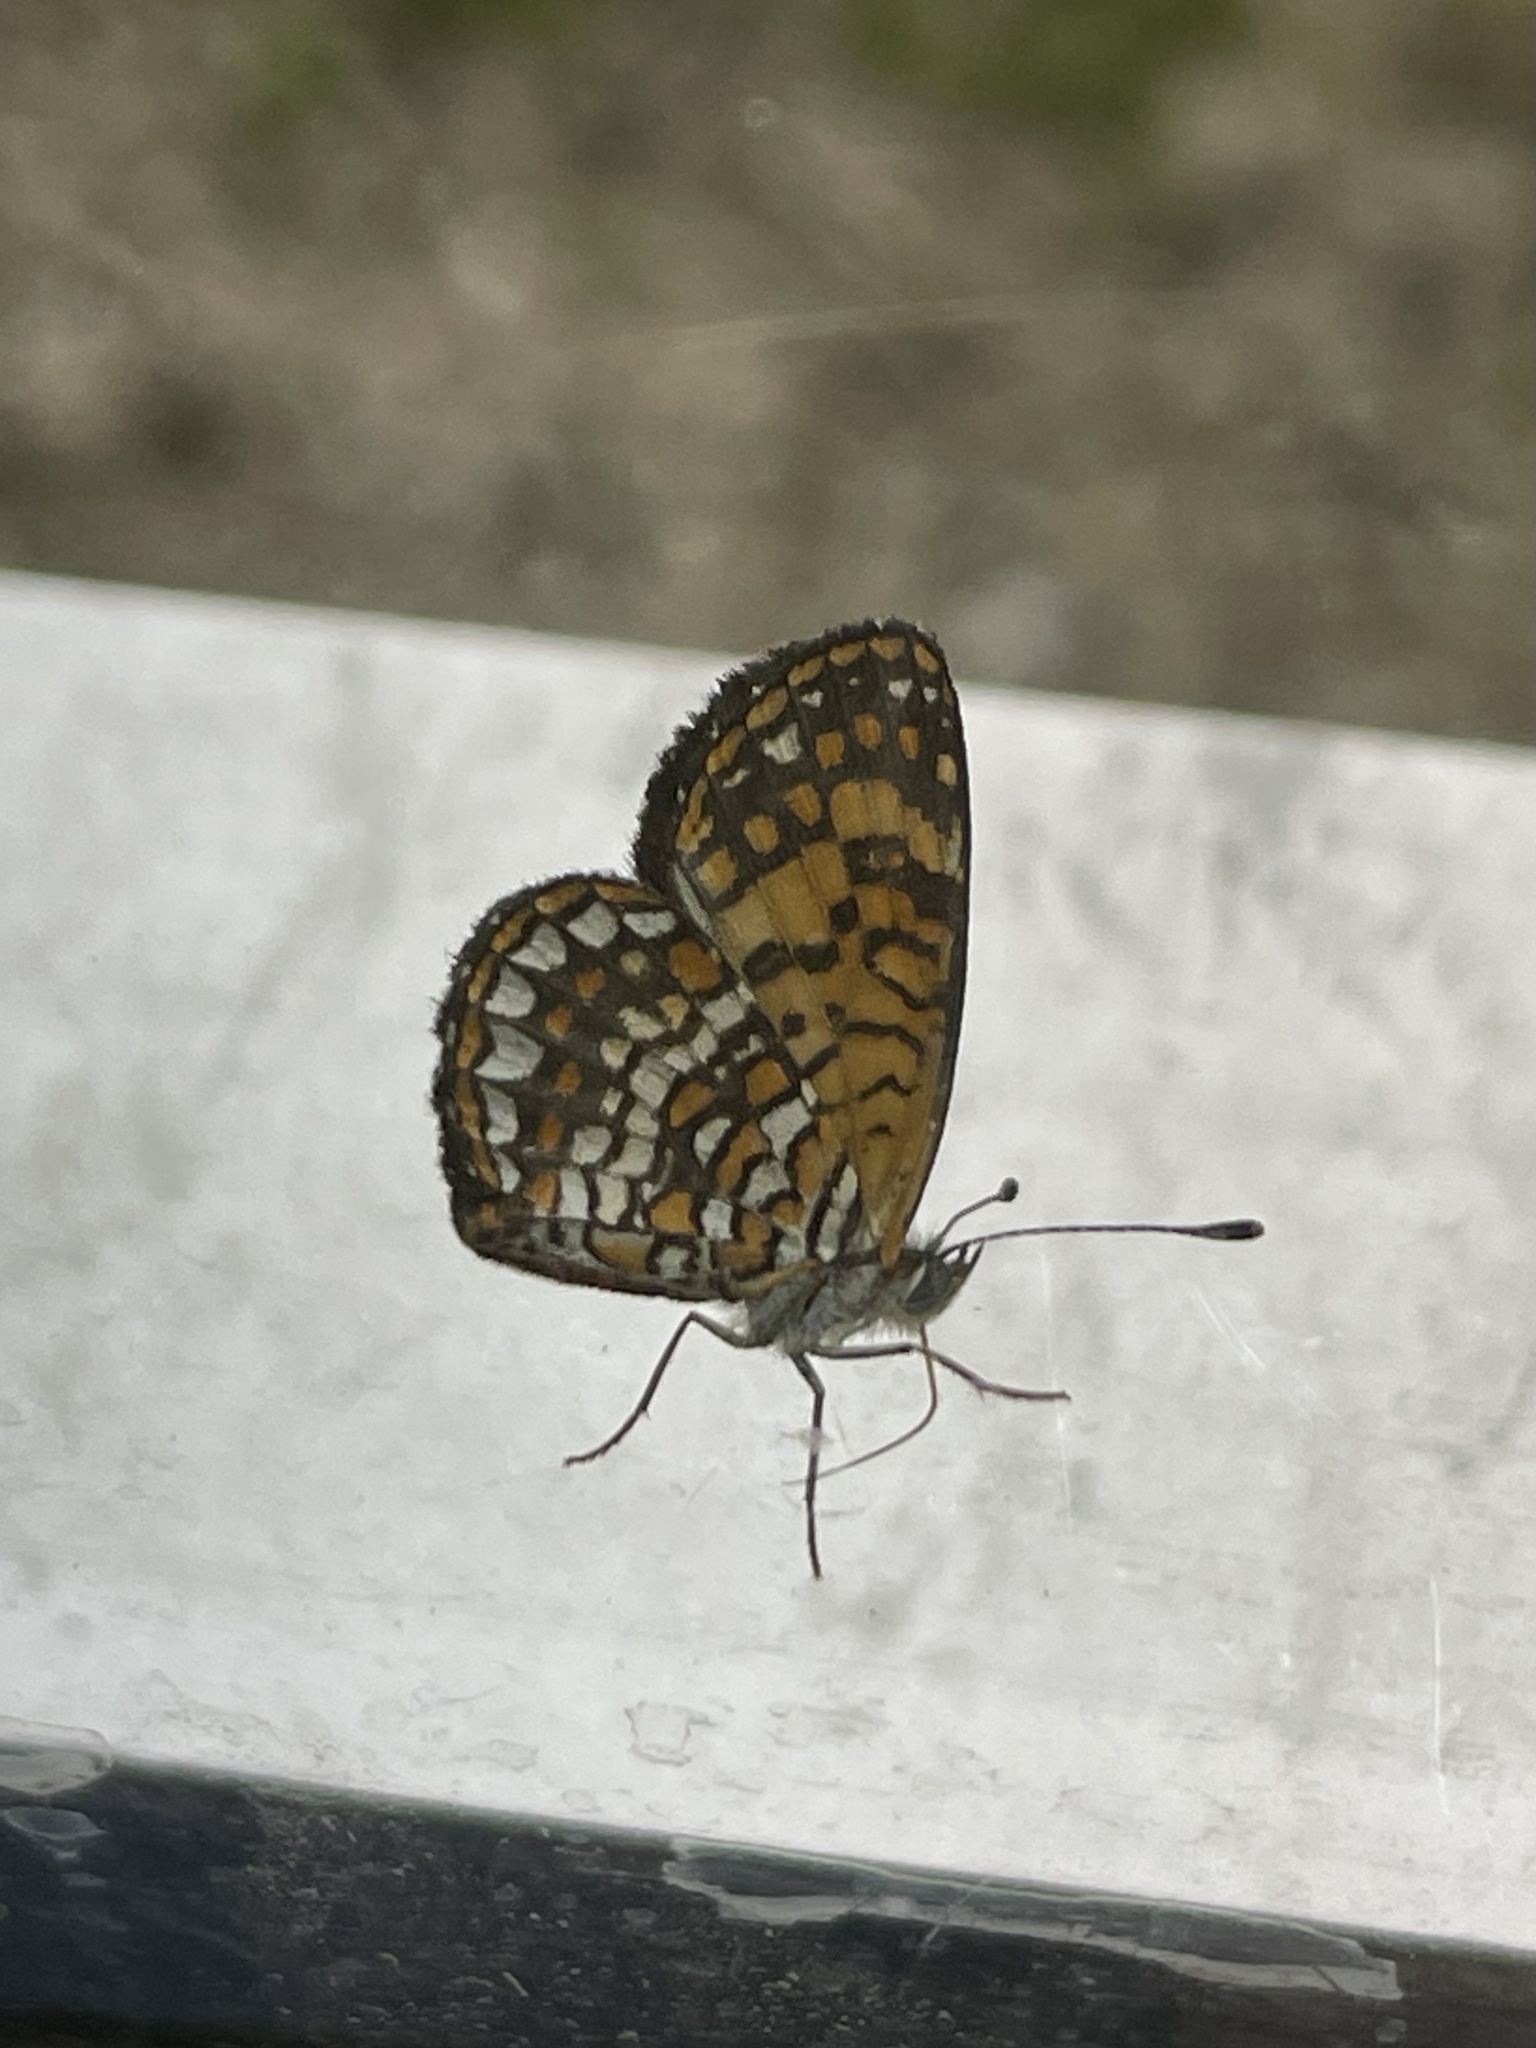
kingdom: Animalia
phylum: Arthropoda
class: Insecta
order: Lepidoptera
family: Nymphalidae
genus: Texola
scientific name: Texola elada
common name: Elada checkerspot
